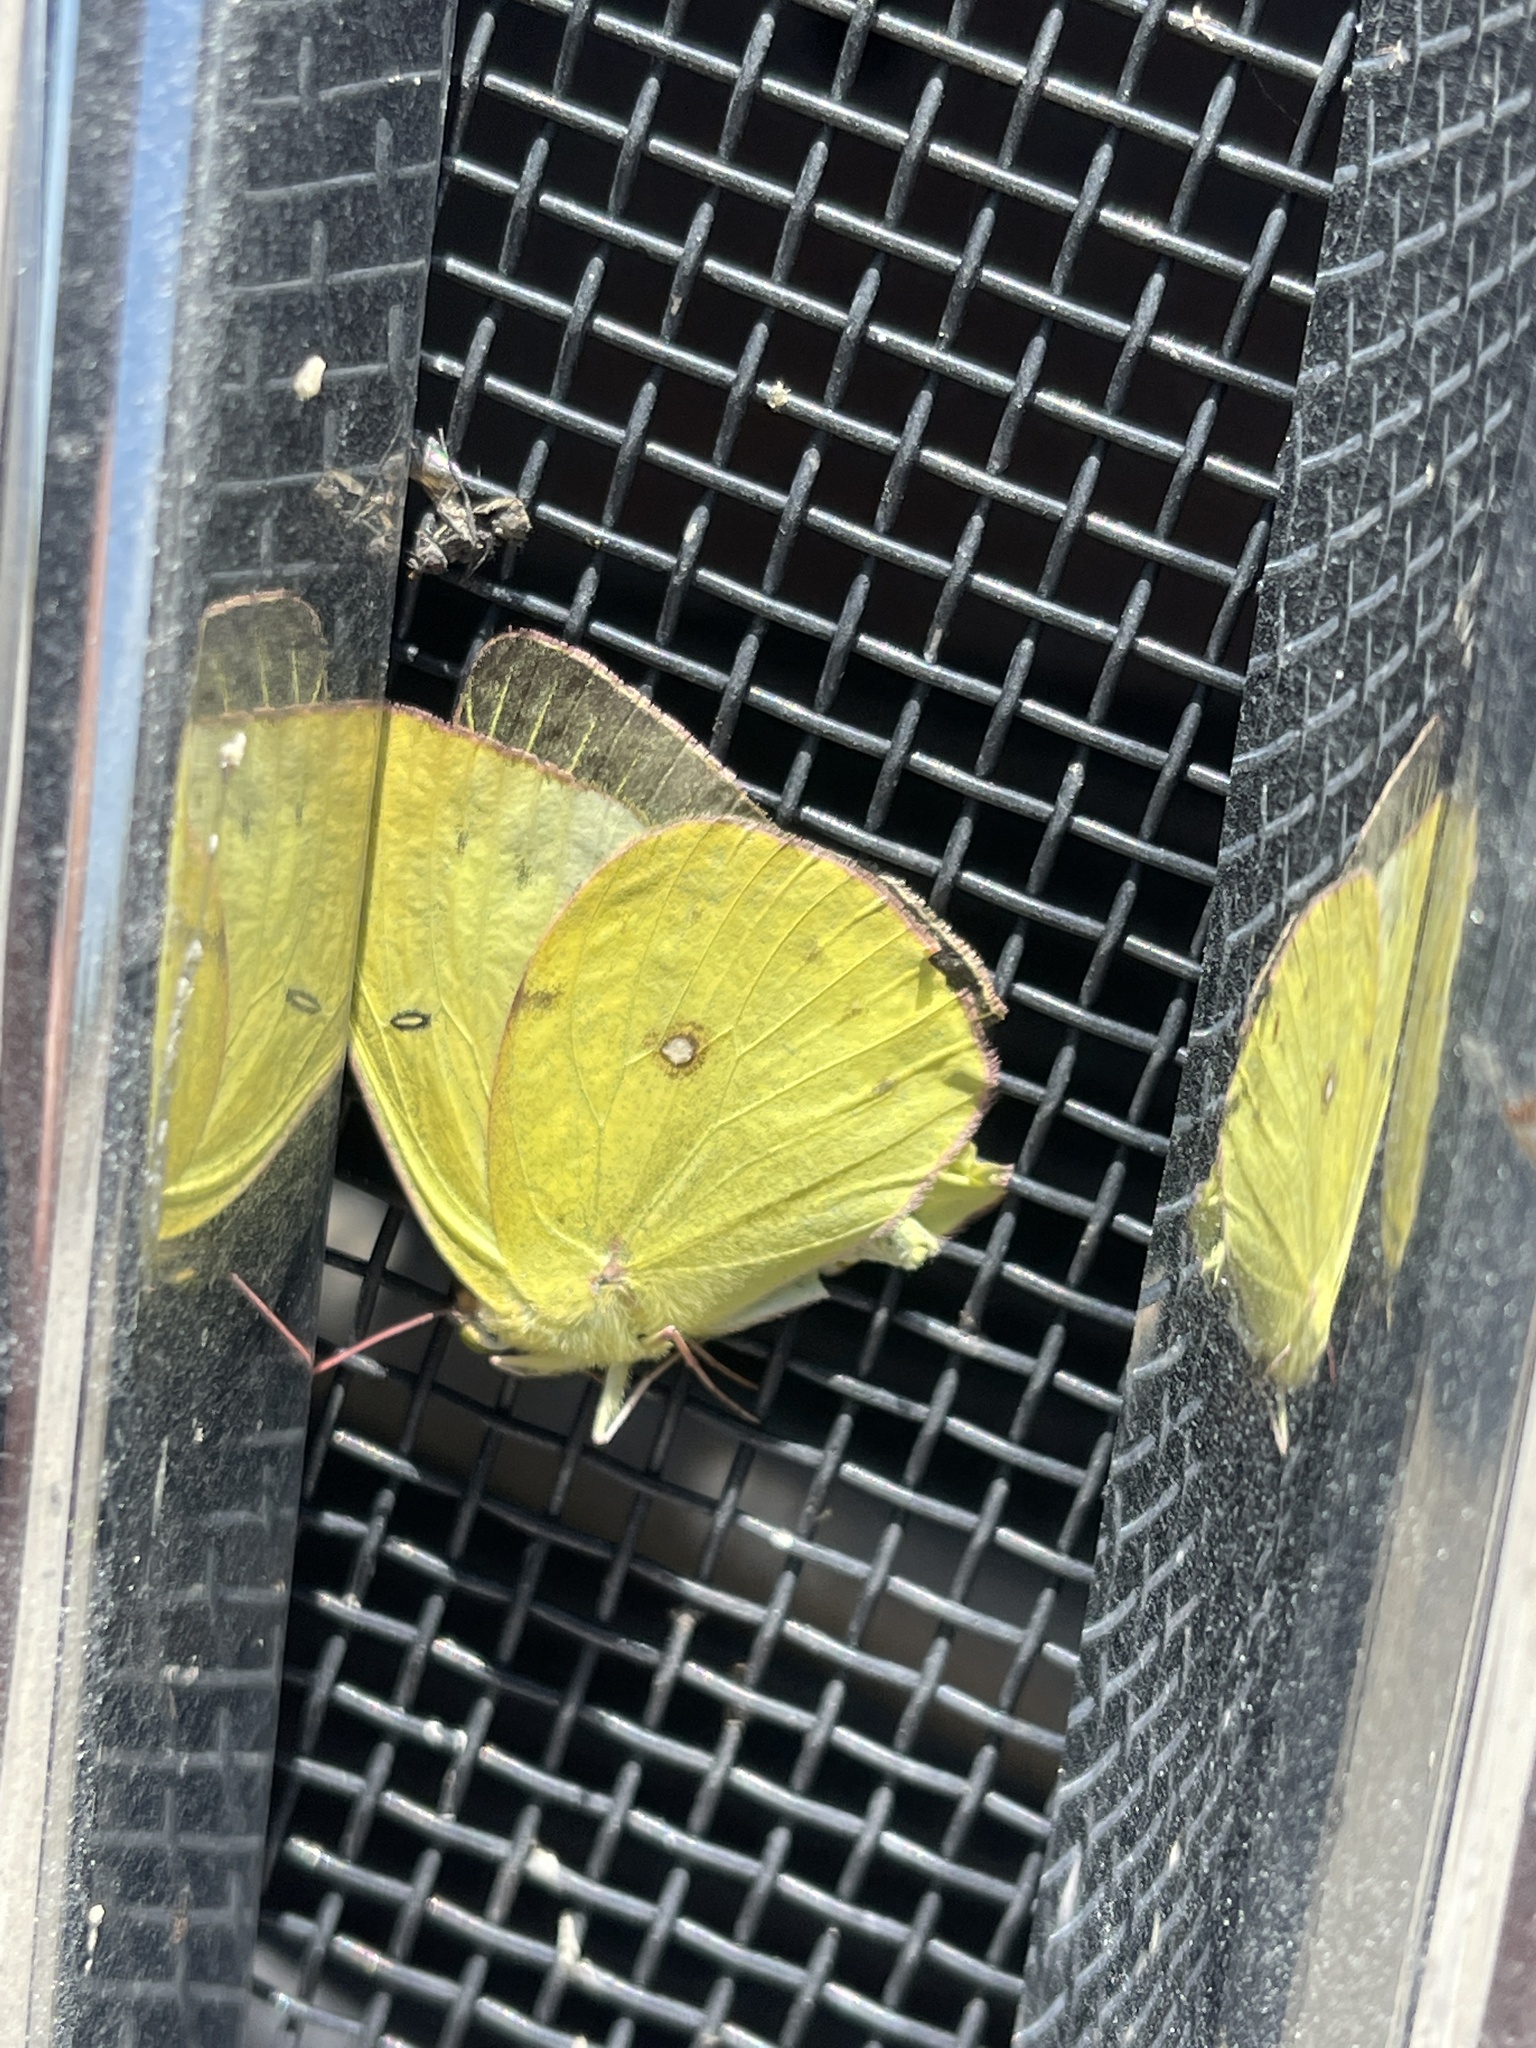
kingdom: Animalia
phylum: Arthropoda
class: Insecta
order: Lepidoptera
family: Pieridae
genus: Colias
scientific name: Colias eurytheme
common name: Alfalfa butterfly
